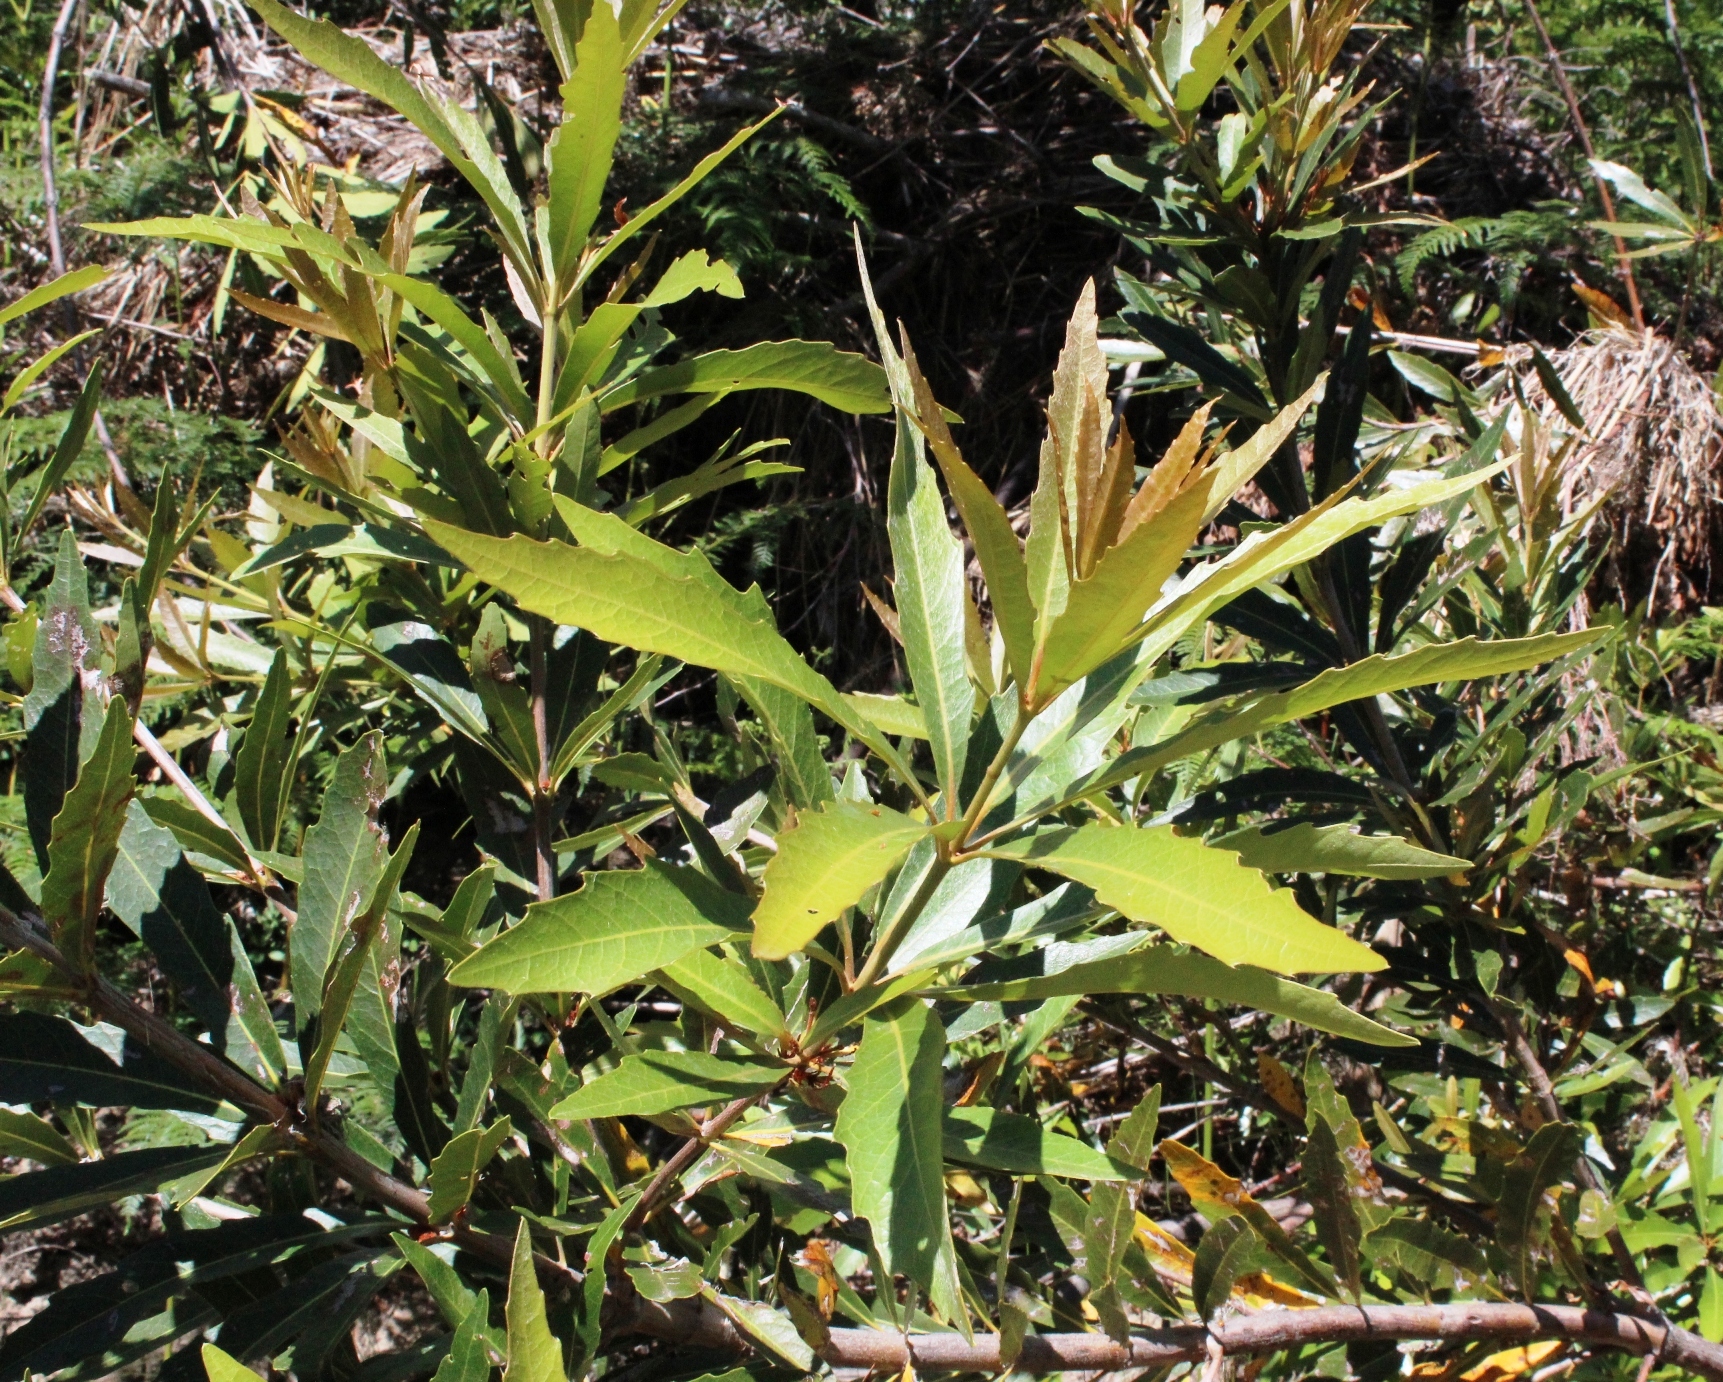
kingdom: Plantae
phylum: Tracheophyta
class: Magnoliopsida
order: Proteales
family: Proteaceae
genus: Brabejum
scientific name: Brabejum stellatifolium
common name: Wild almond
